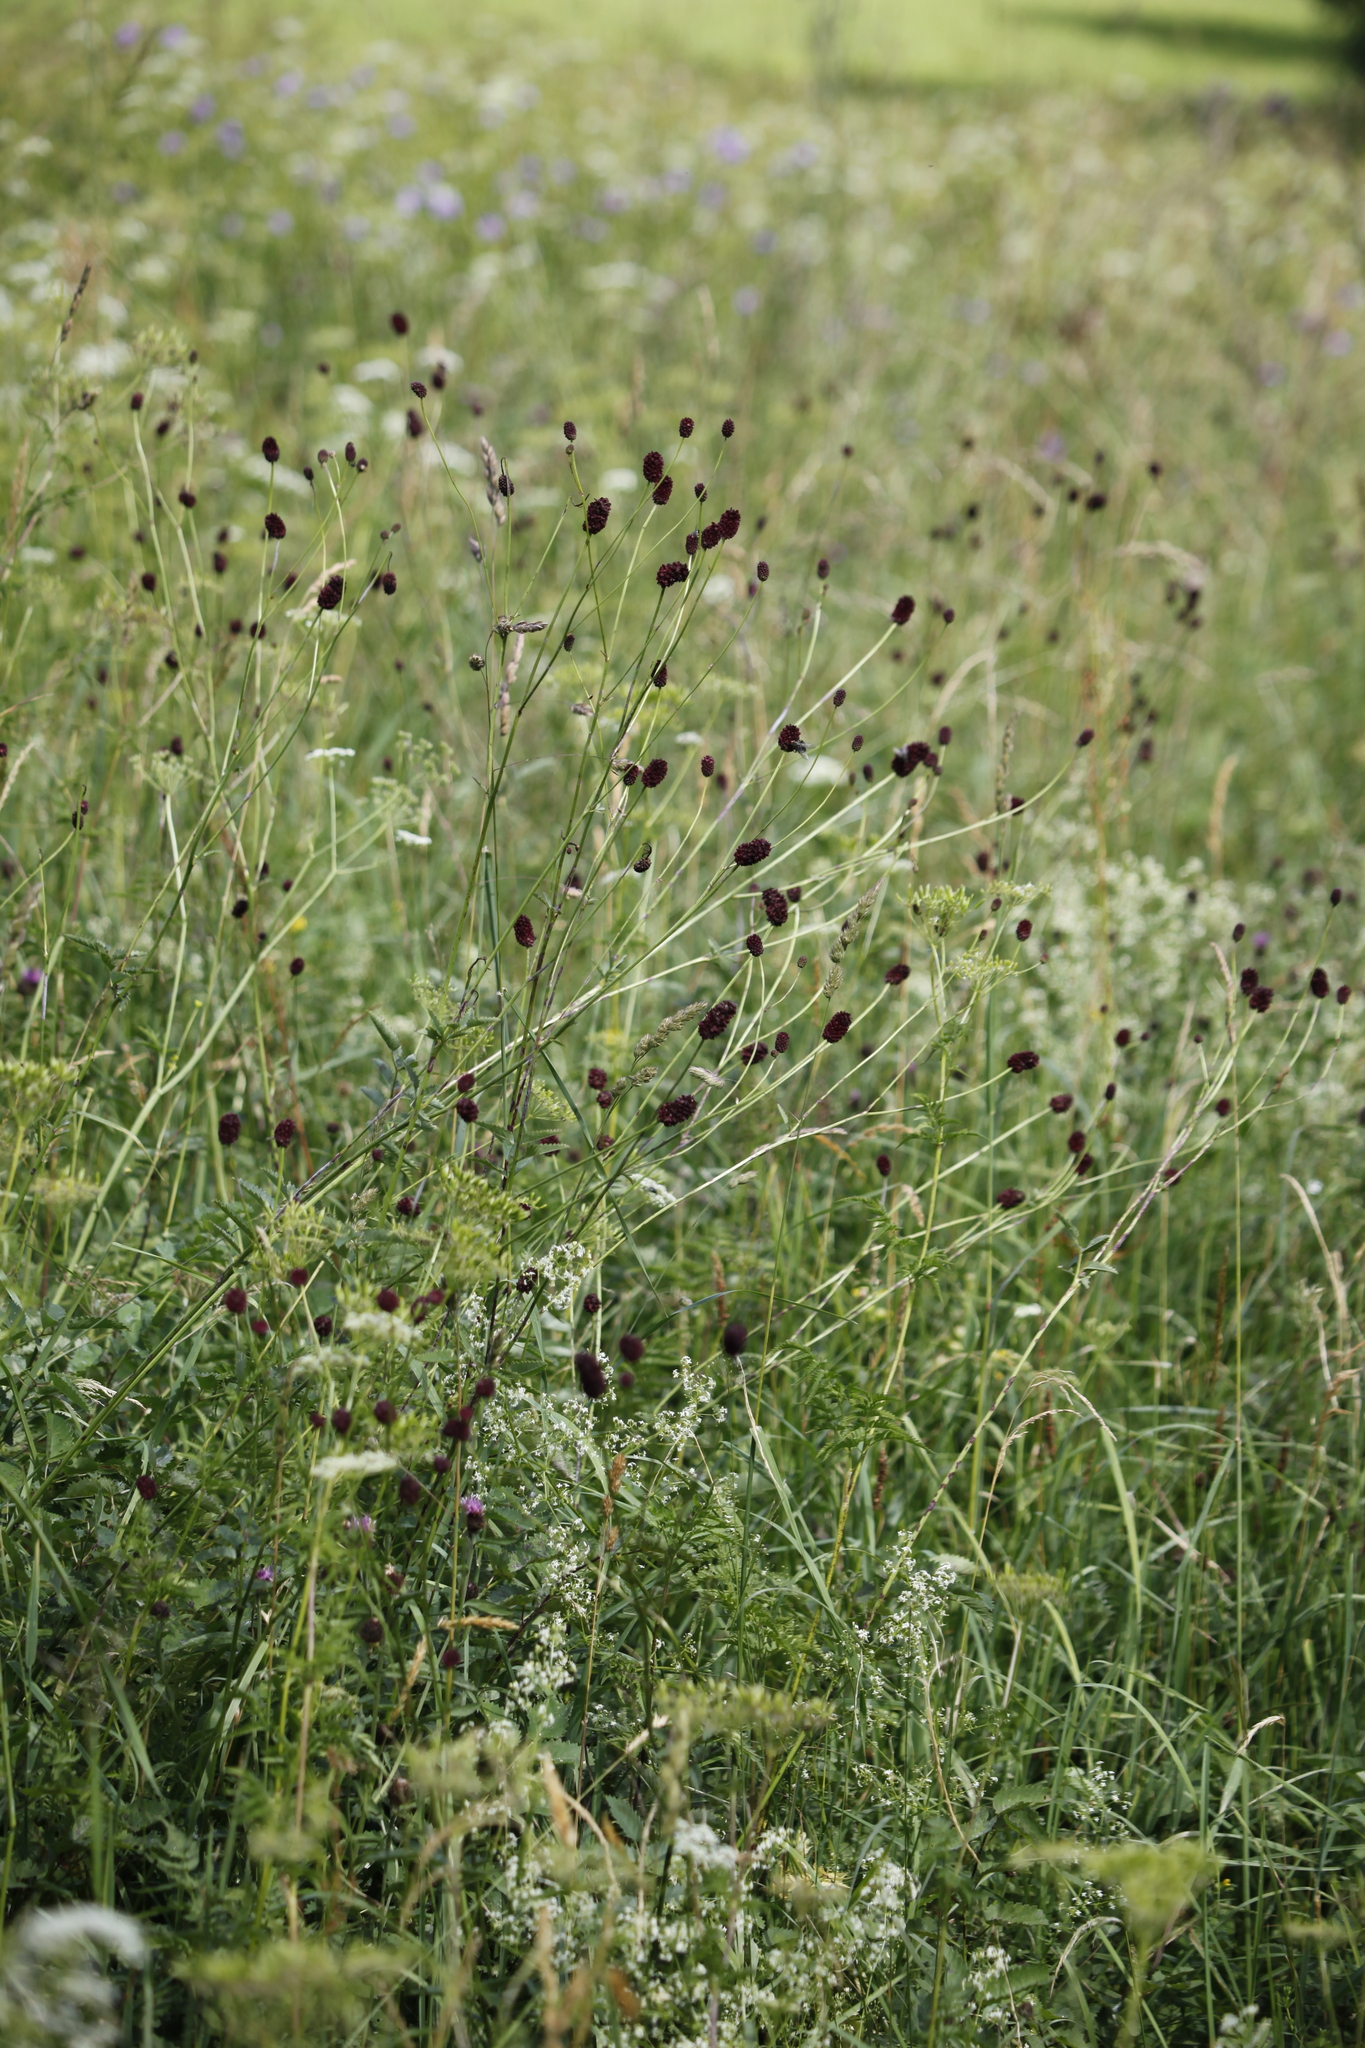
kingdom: Plantae
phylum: Tracheophyta
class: Magnoliopsida
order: Rosales
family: Rosaceae
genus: Sanguisorba
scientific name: Sanguisorba officinalis
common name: Great burnet
